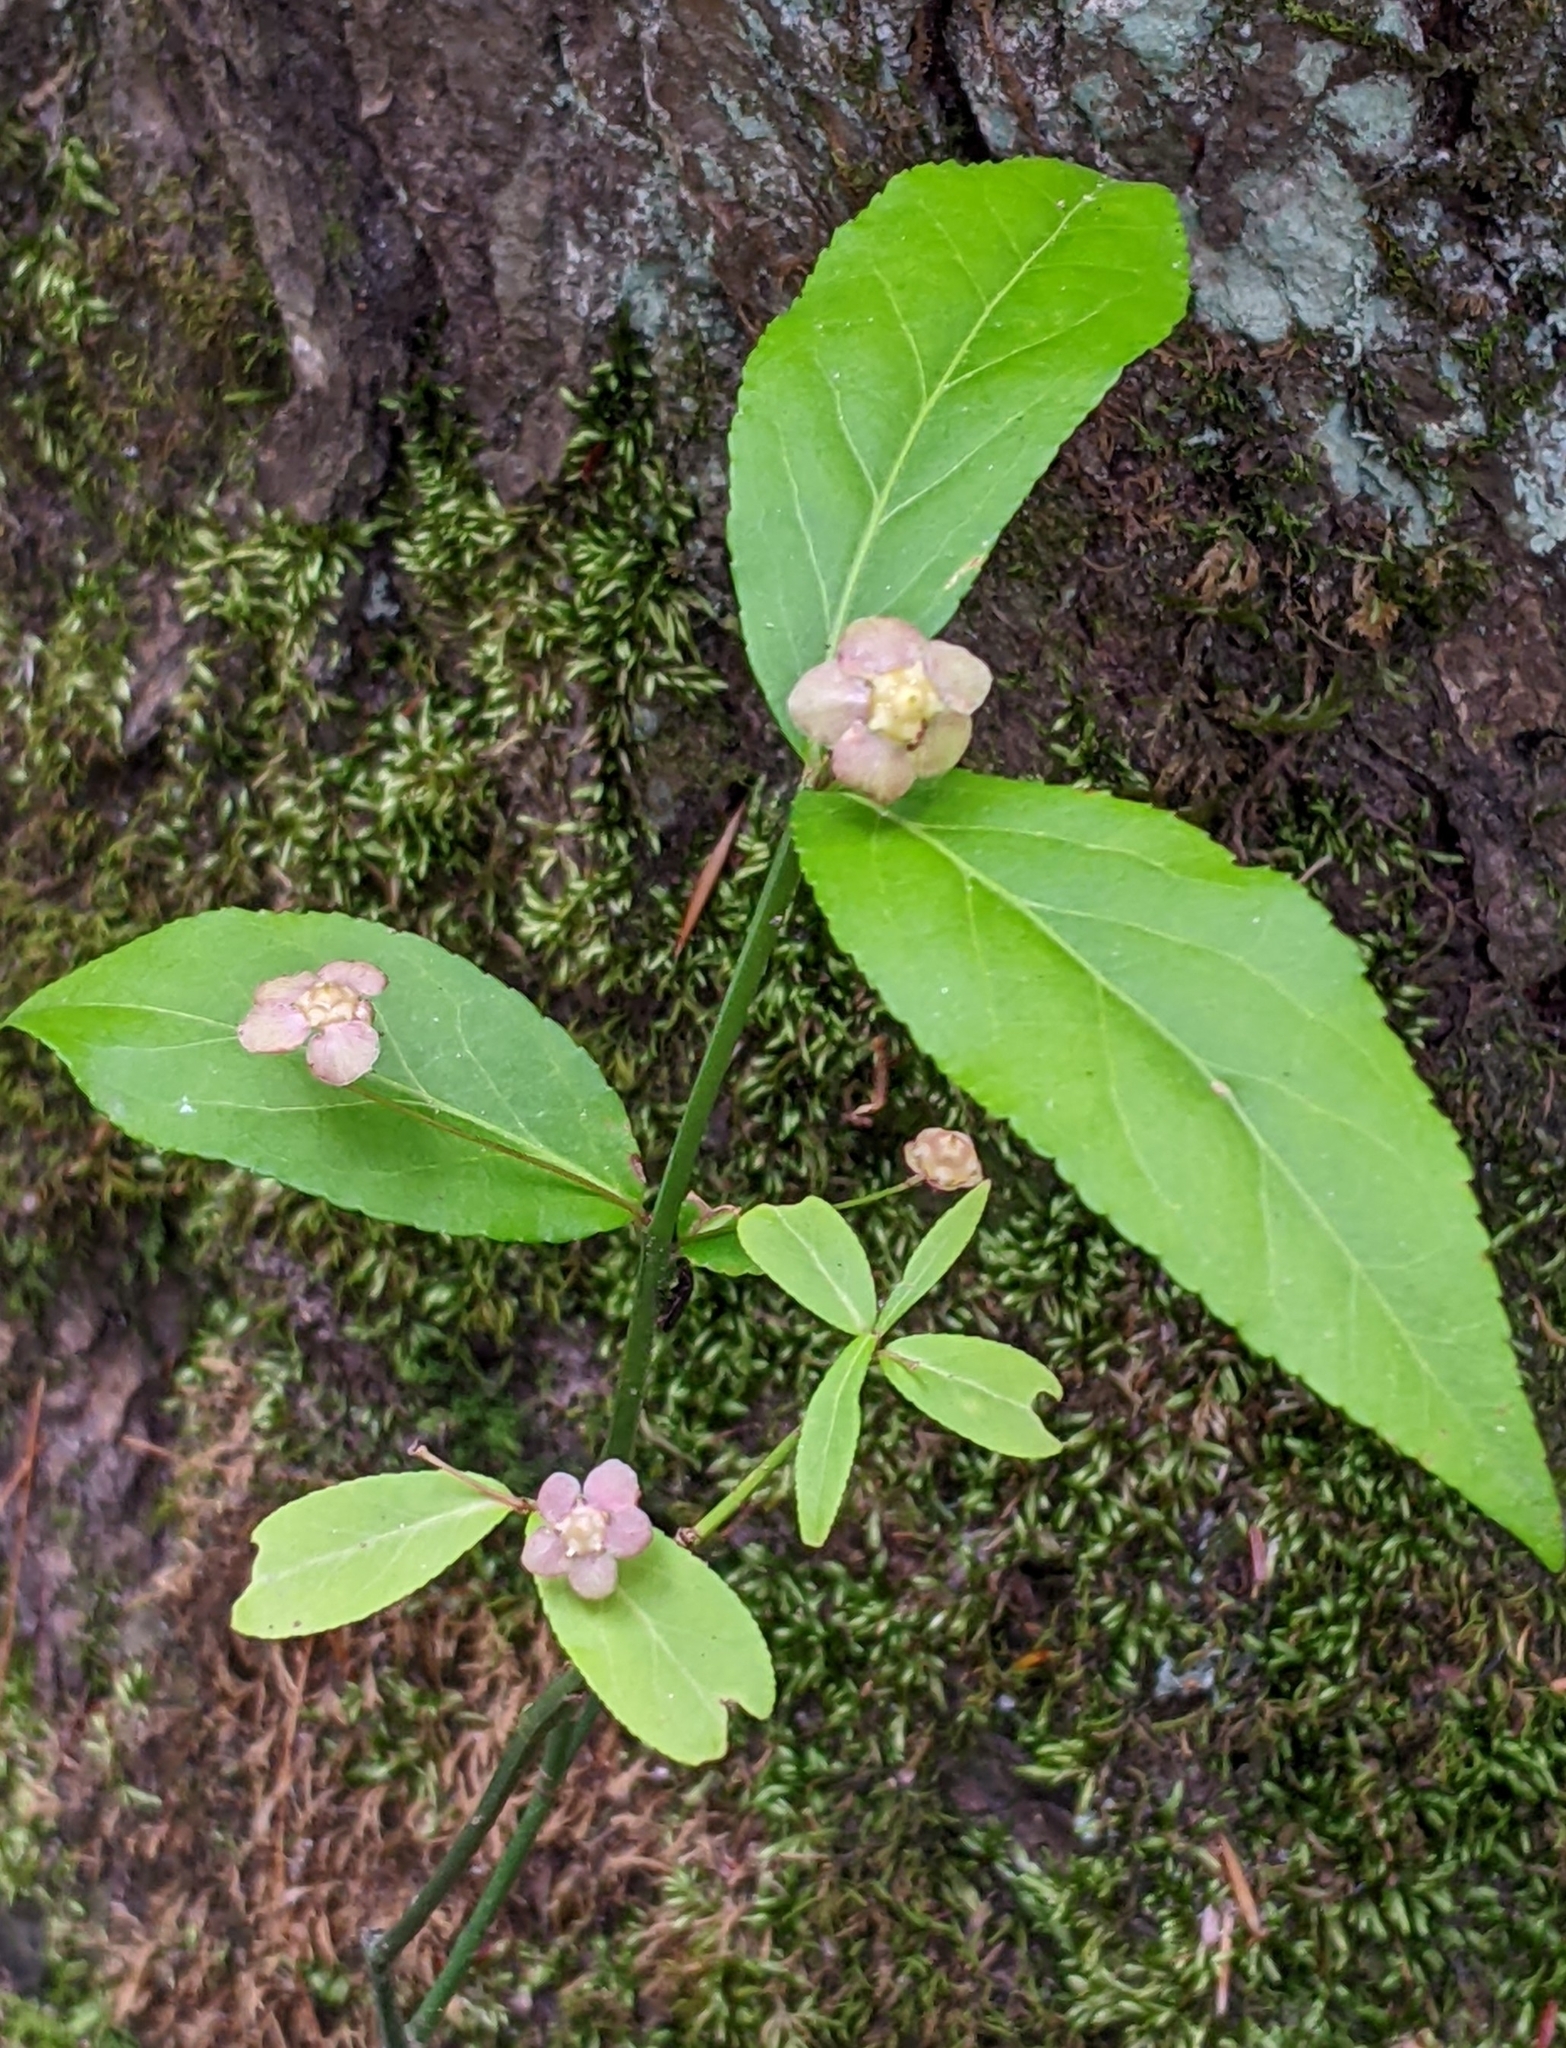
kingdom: Plantae
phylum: Tracheophyta
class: Magnoliopsida
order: Celastrales
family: Celastraceae
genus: Euonymus
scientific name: Euonymus americanus
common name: Bursting-heart
